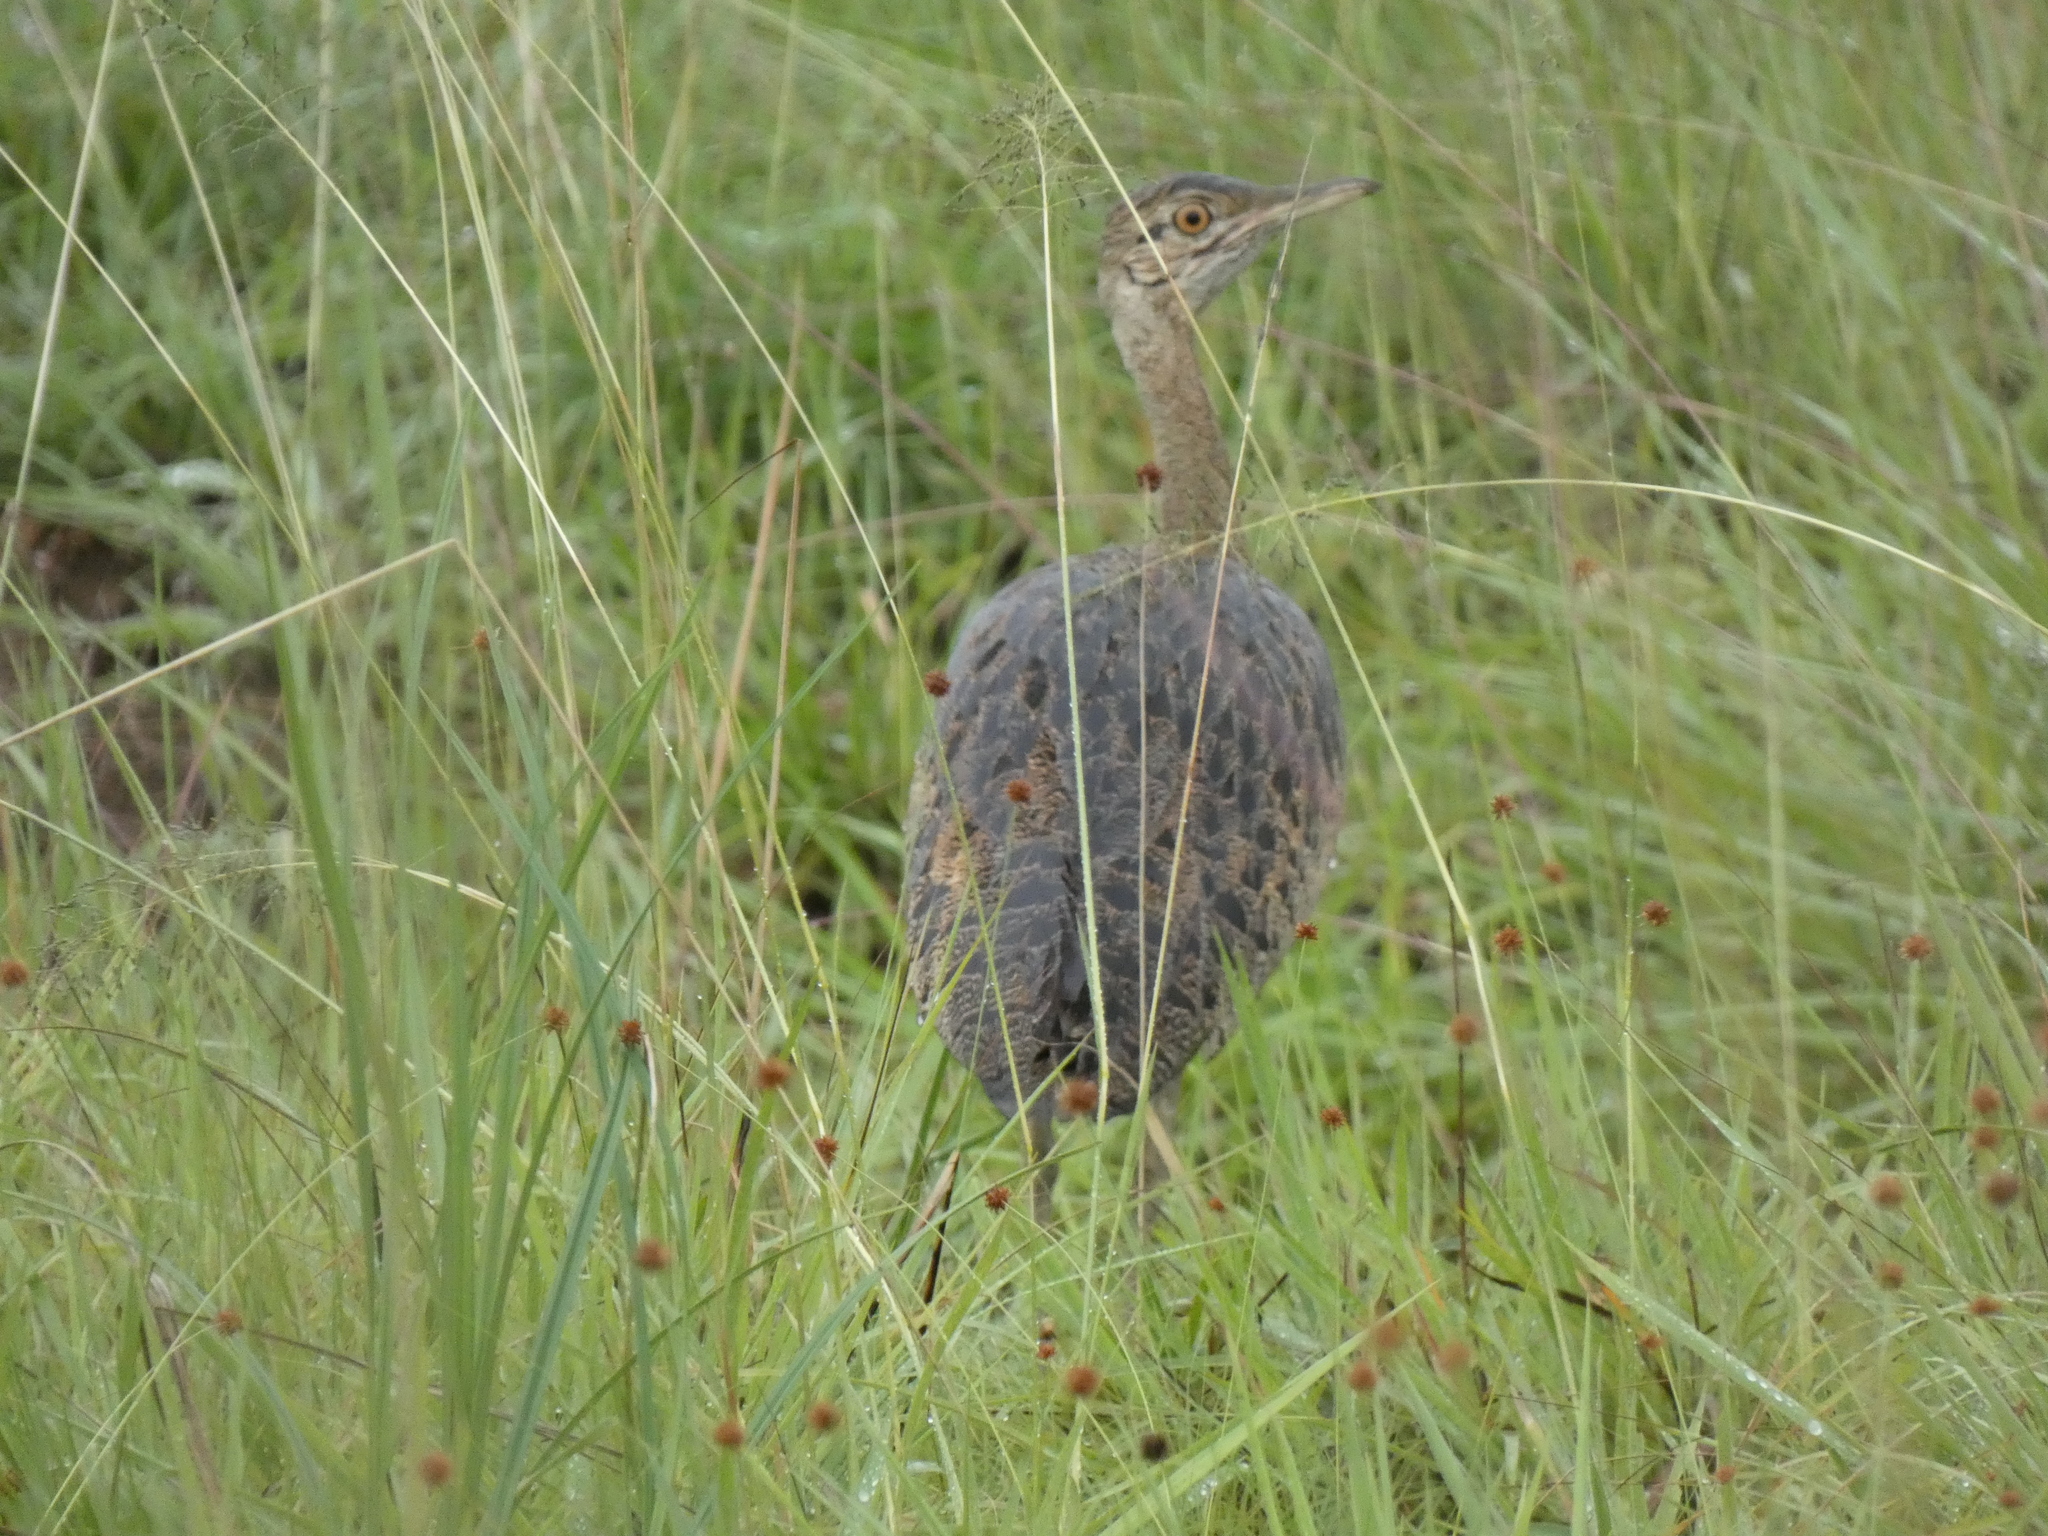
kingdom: Animalia
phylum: Chordata
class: Aves
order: Otidiformes
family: Otididae
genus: Lissotis
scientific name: Lissotis melanogaster
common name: Black-bellied bustard
